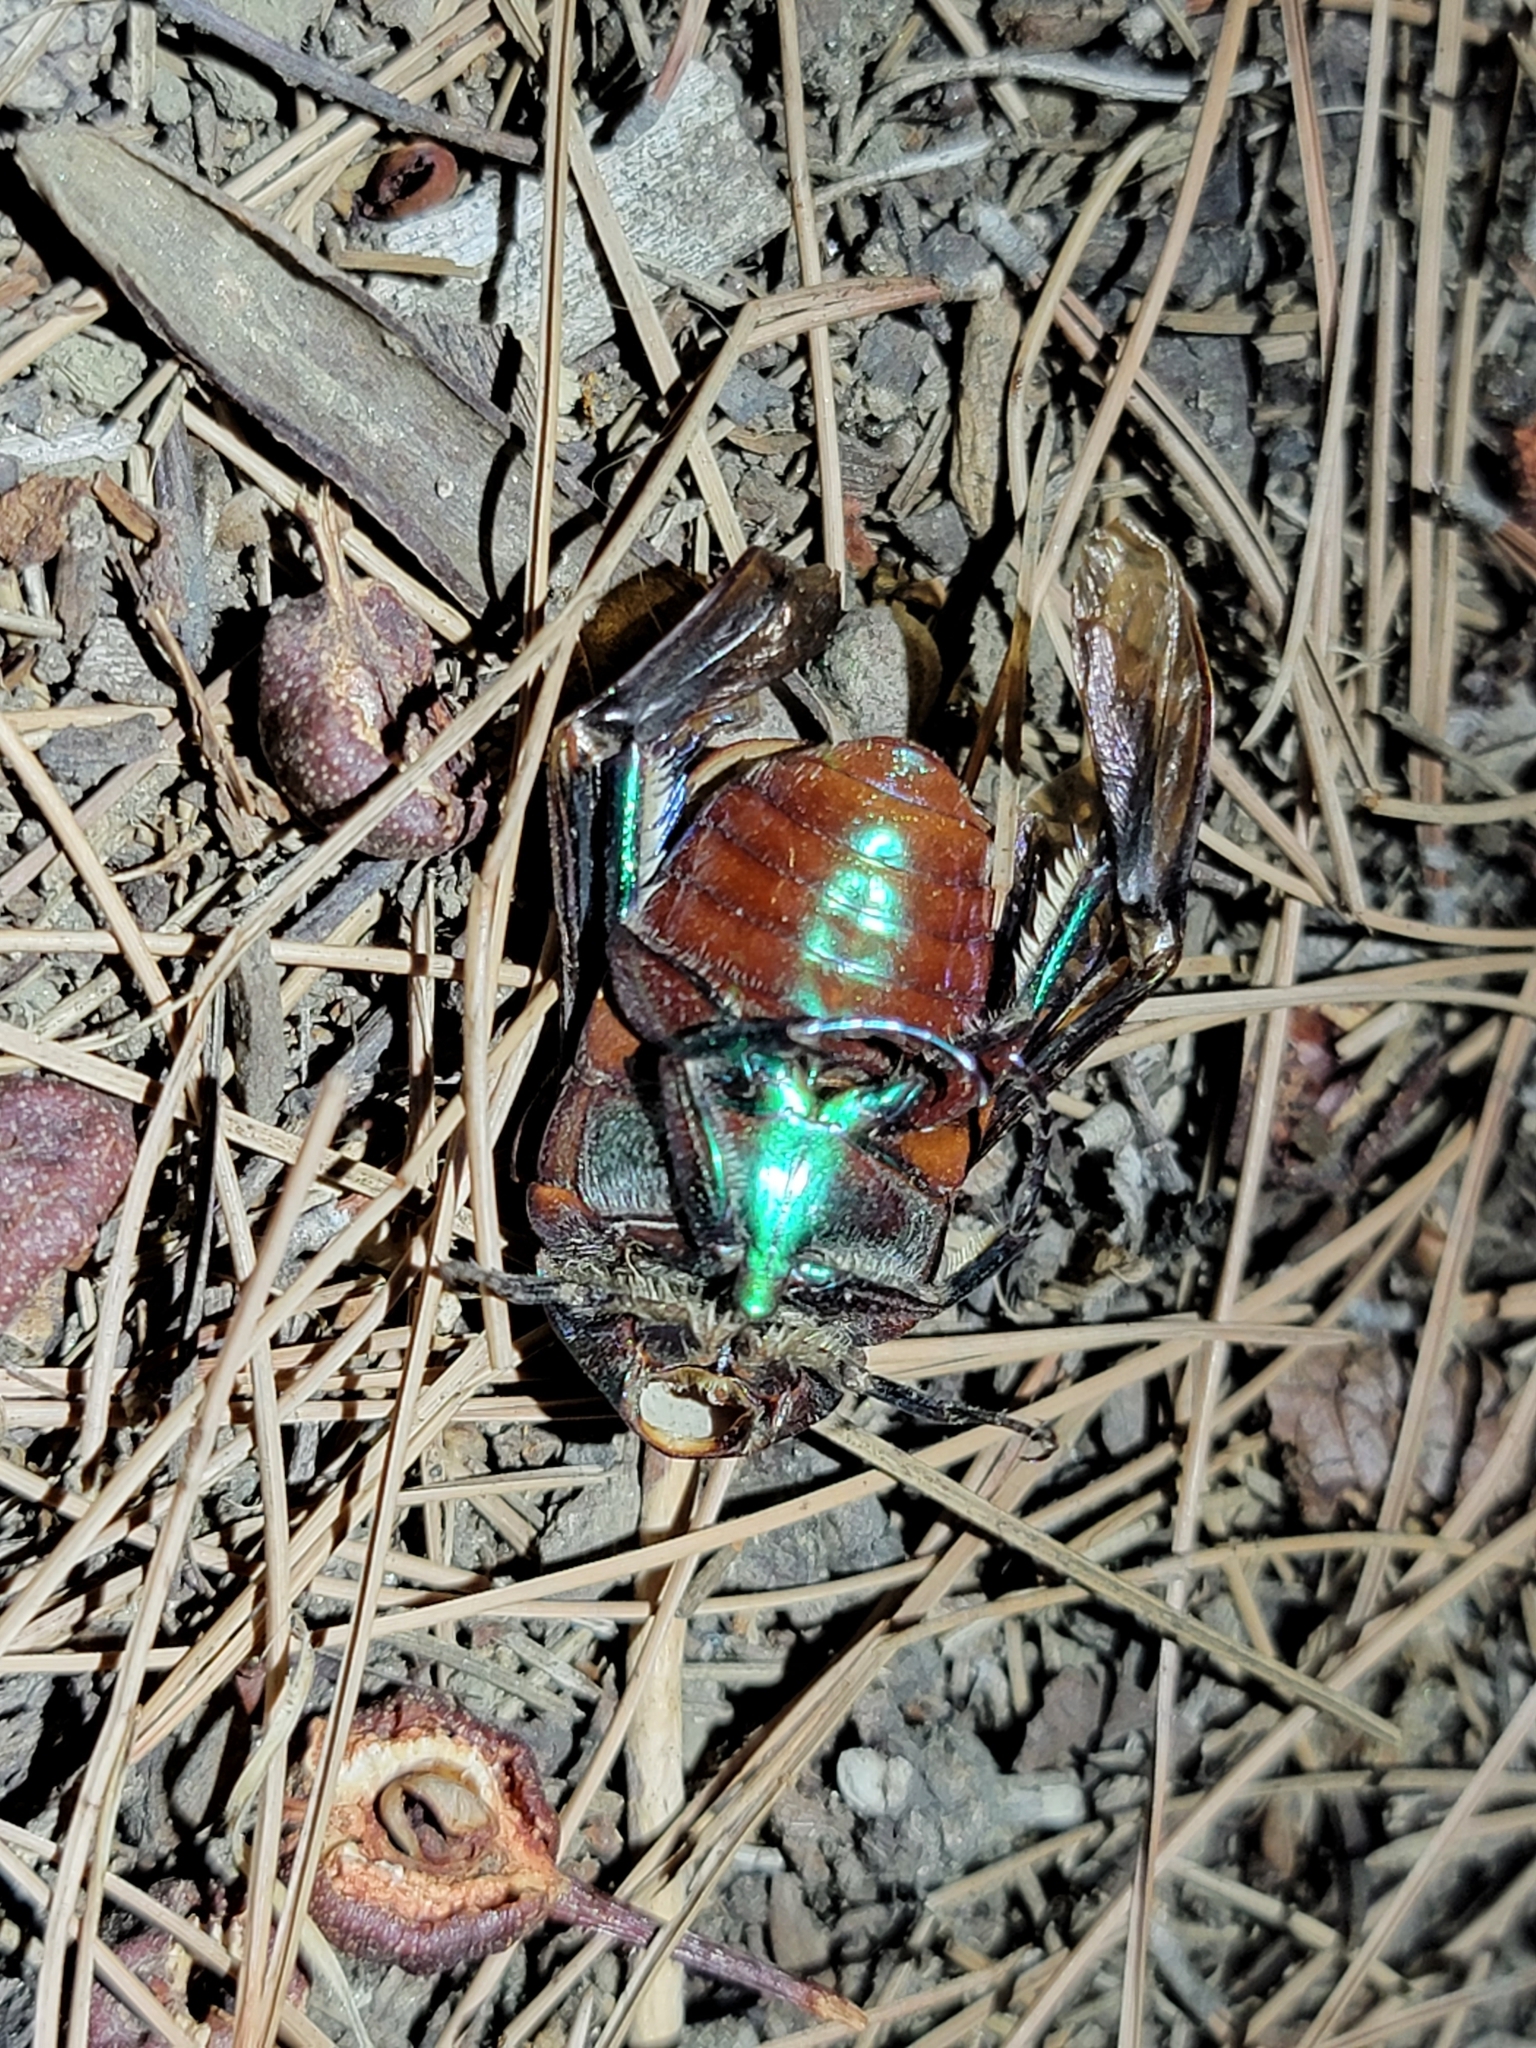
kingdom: Animalia
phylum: Arthropoda
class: Insecta
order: Coleoptera
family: Scarabaeidae
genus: Cotinis
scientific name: Cotinis mutabilis
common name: Figeater beetle
